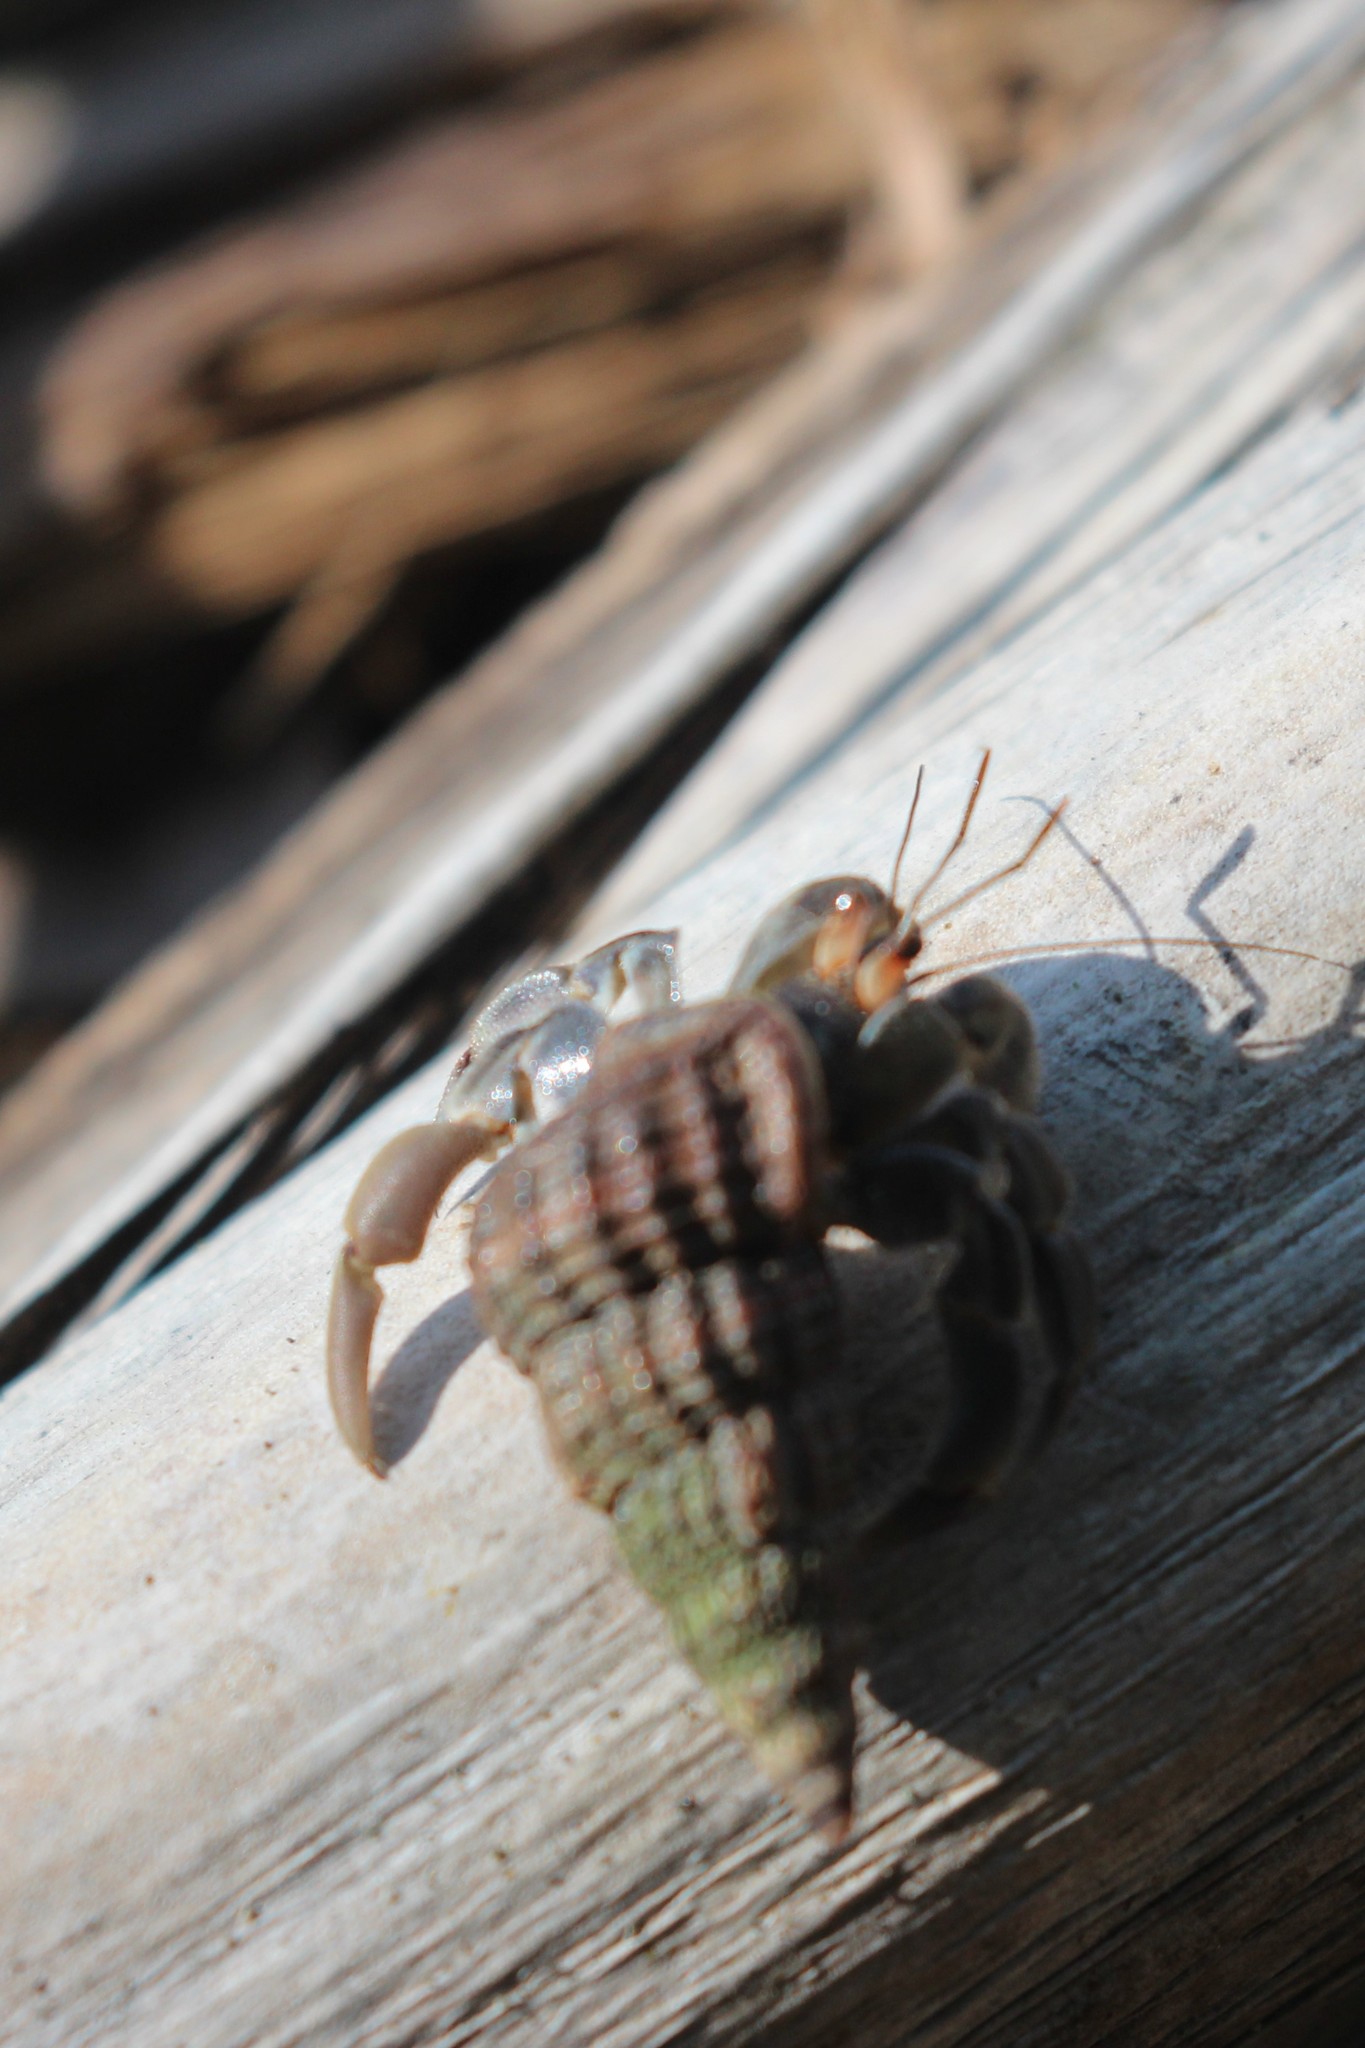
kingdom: Animalia
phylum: Arthropoda
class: Malacostraca
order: Decapoda
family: Coenobitidae
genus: Coenobita
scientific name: Coenobita compressus
